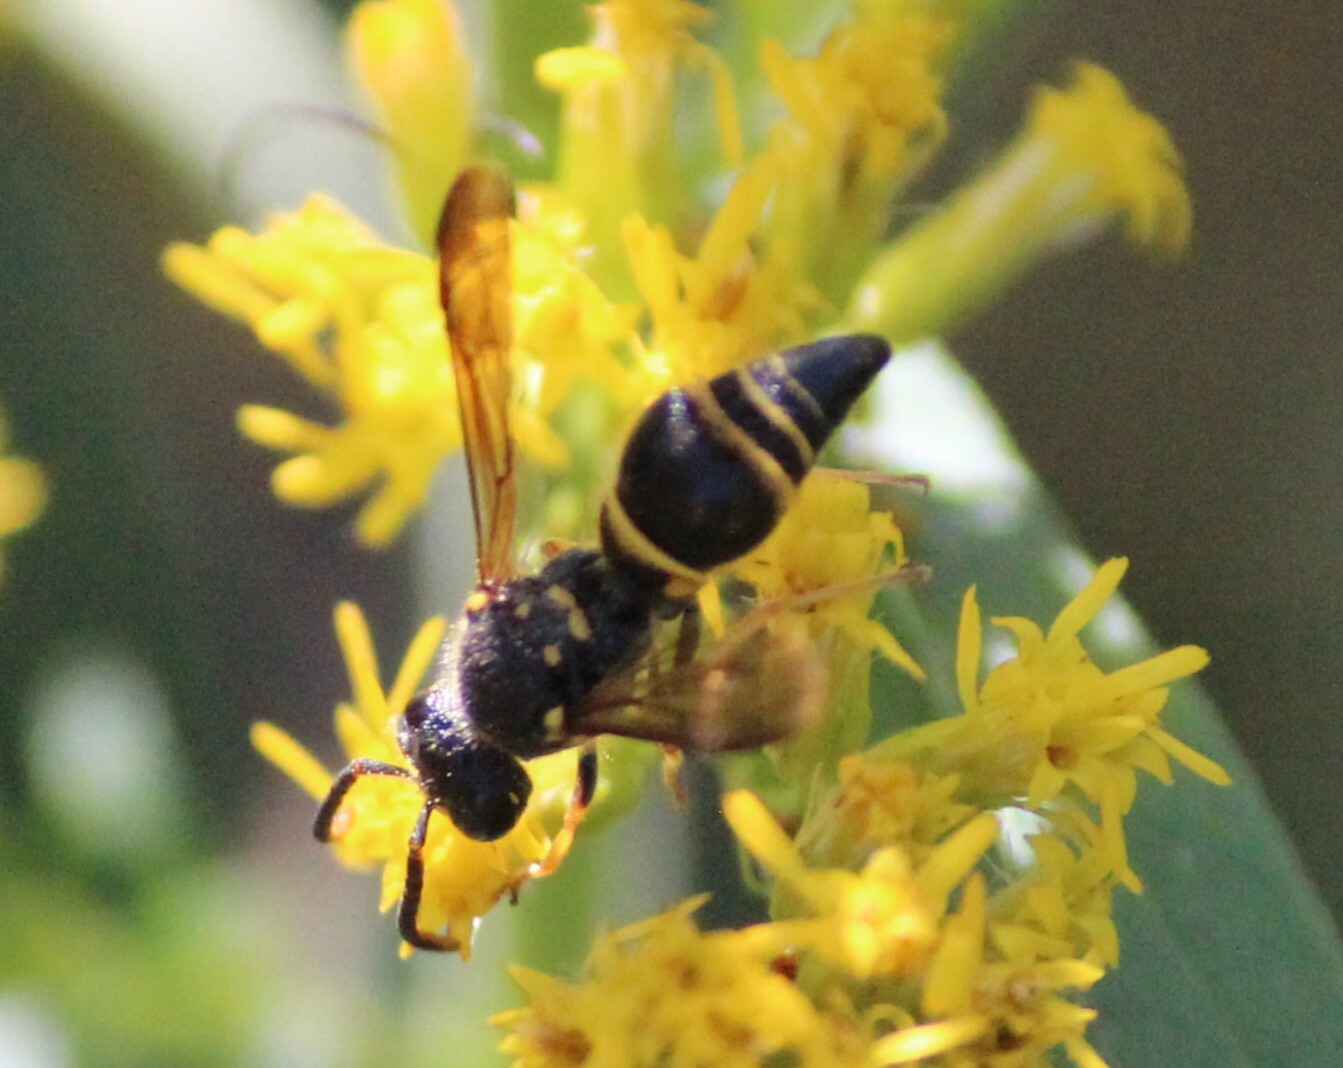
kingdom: Animalia
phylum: Arthropoda
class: Insecta
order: Hymenoptera
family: Vespidae
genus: Ancistrocerus
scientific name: Ancistrocerus campestris
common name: Smiling mason wasp
